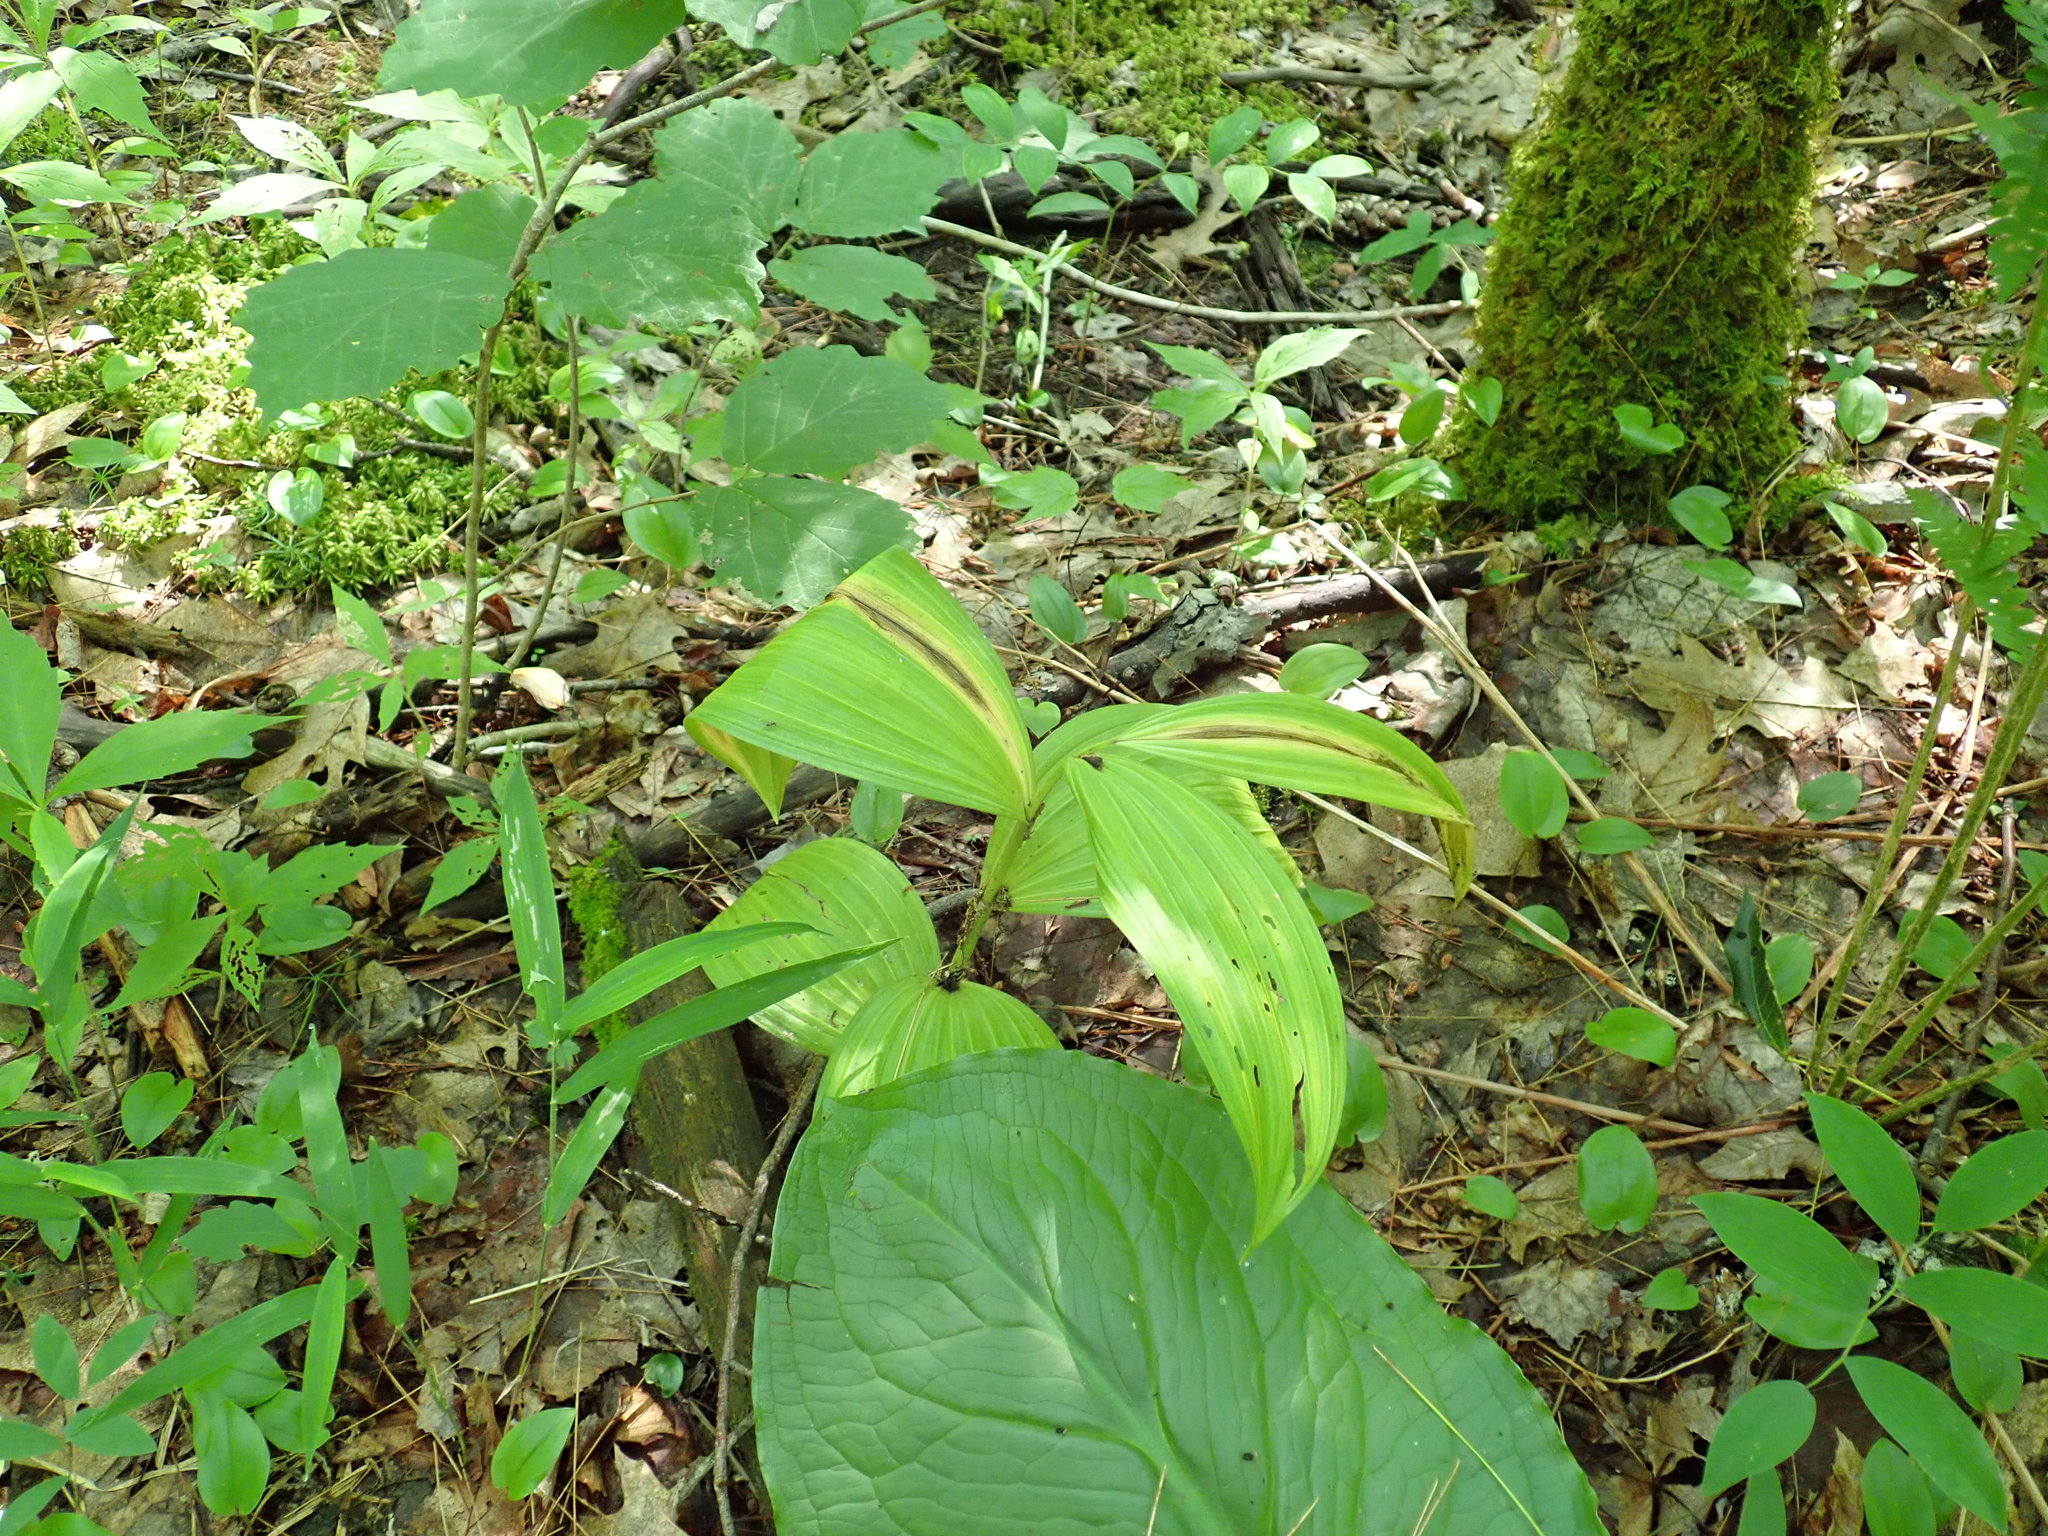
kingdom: Plantae
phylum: Tracheophyta
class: Liliopsida
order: Liliales
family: Melanthiaceae
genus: Veratrum
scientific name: Veratrum viride
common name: American false hellebore
